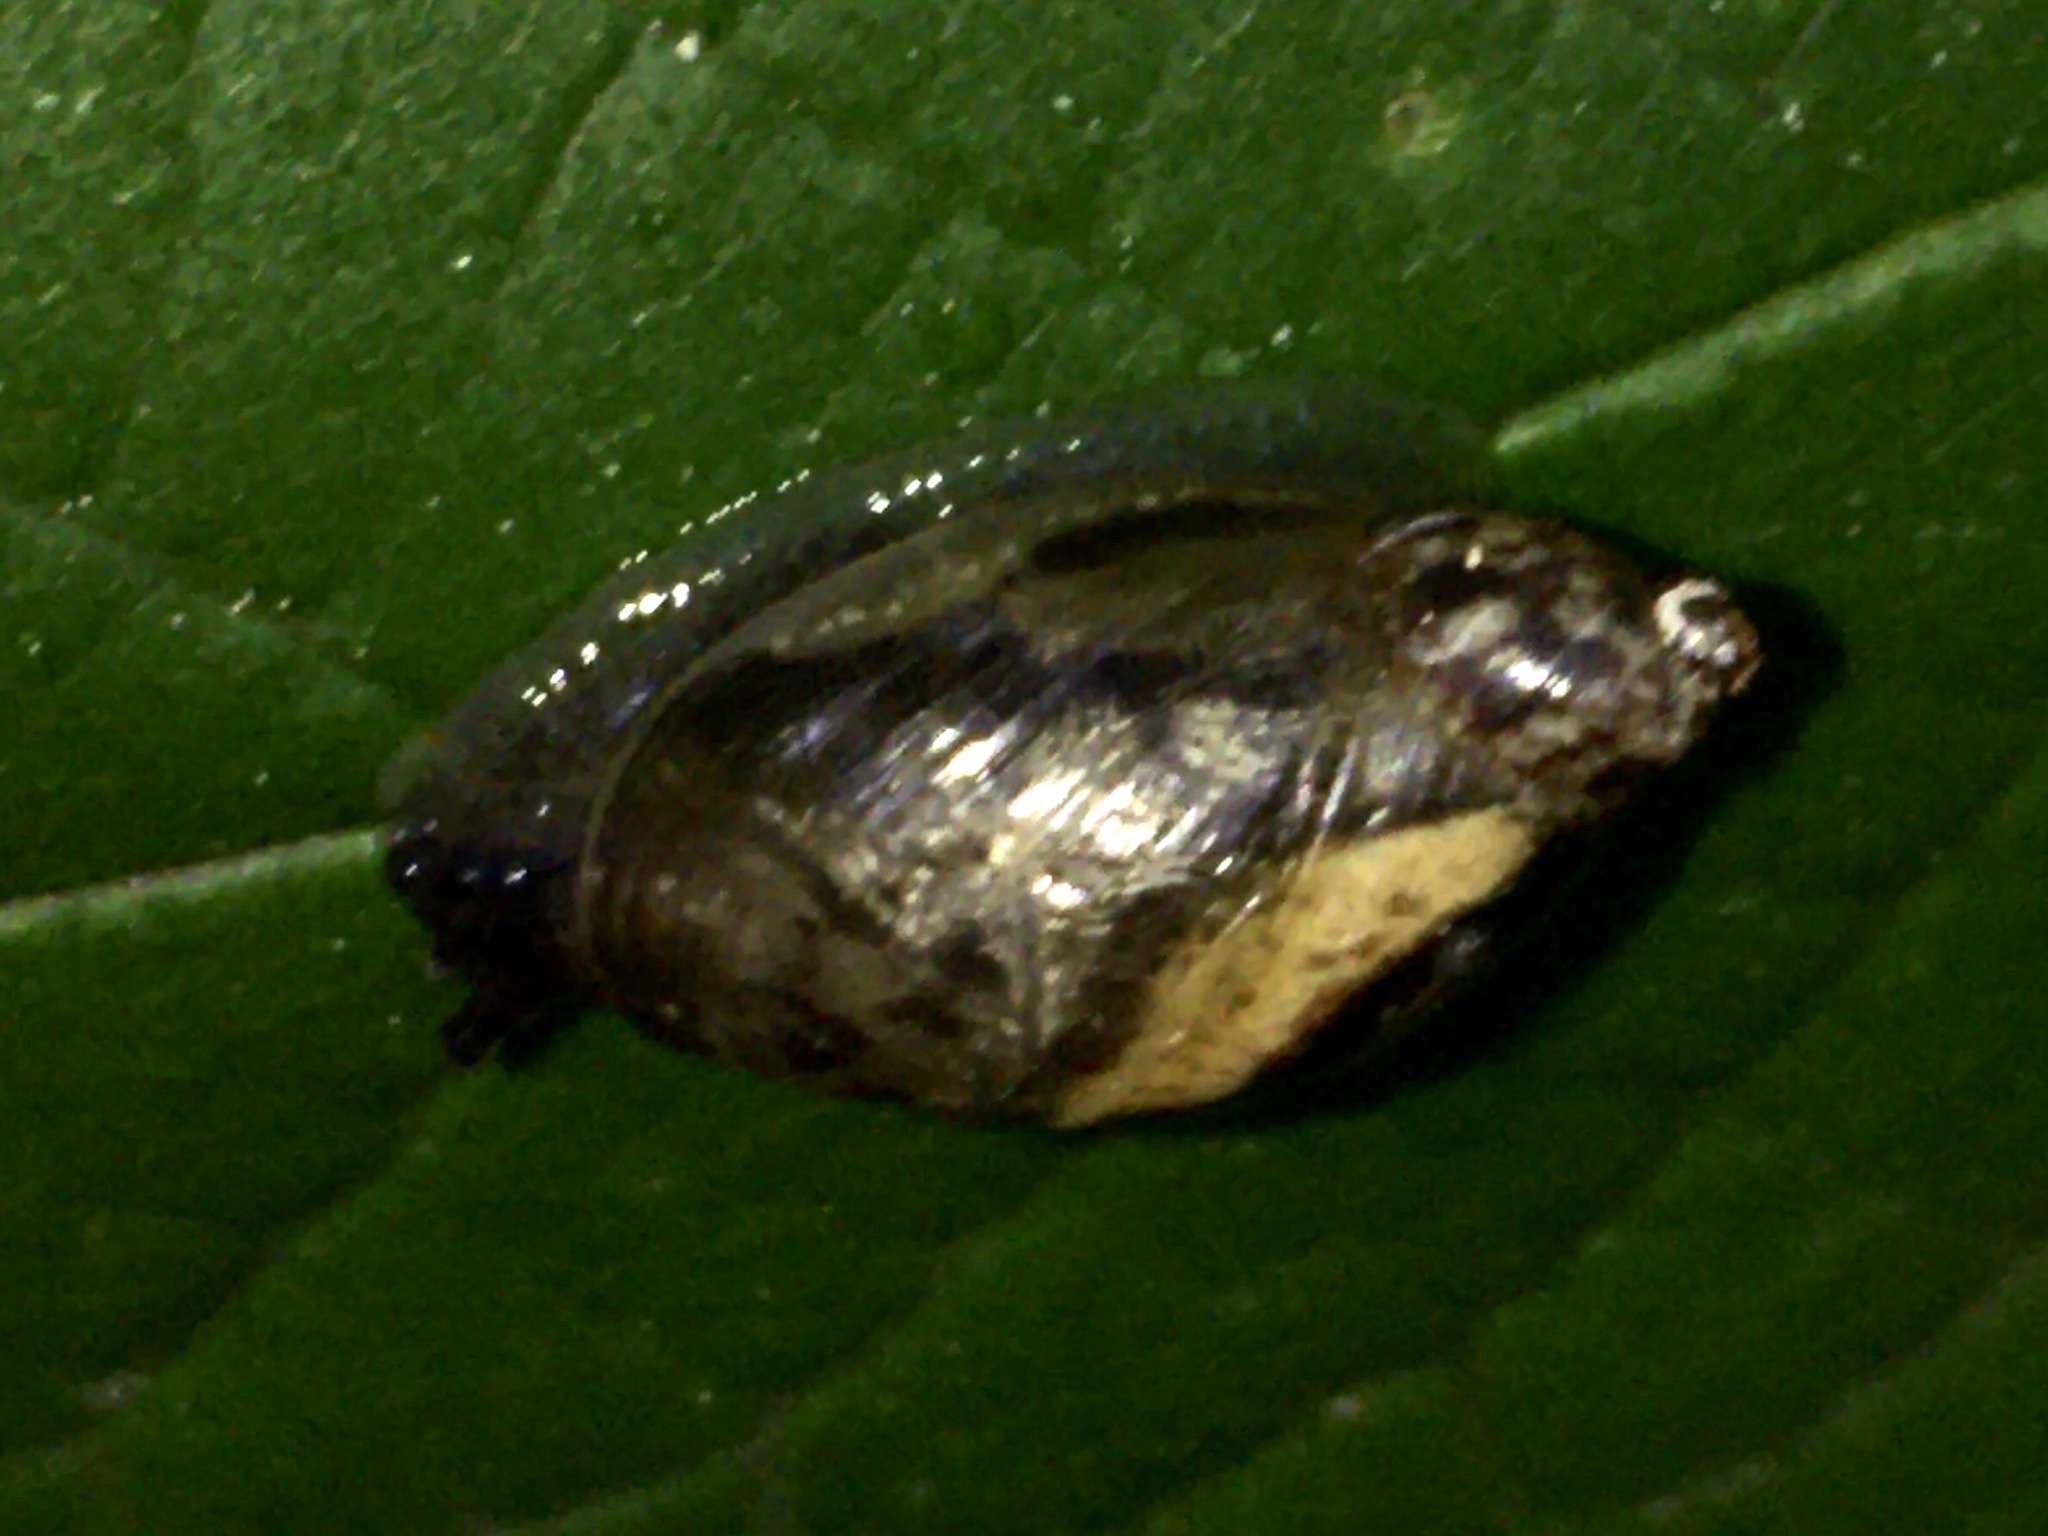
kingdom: Animalia
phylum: Mollusca
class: Gastropoda
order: Stylommatophora
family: Succineidae
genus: Succinea
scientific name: Succinea putris
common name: European ambersnail
